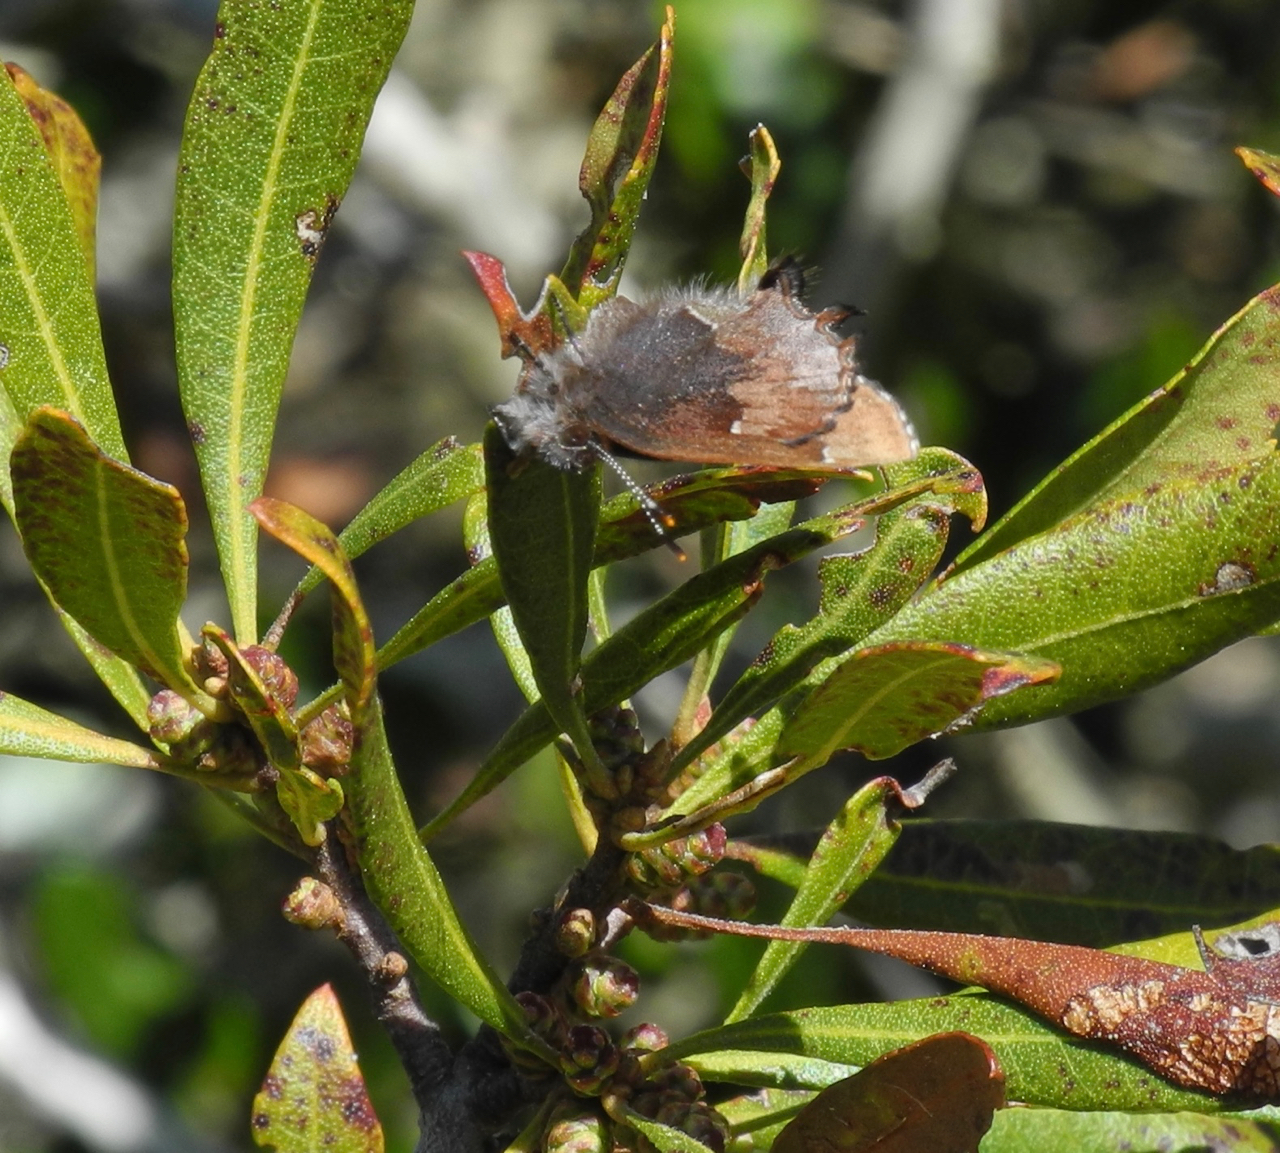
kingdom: Animalia
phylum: Arthropoda
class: Insecta
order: Lepidoptera
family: Lycaenidae
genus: Incisalia
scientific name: Incisalia henrici
